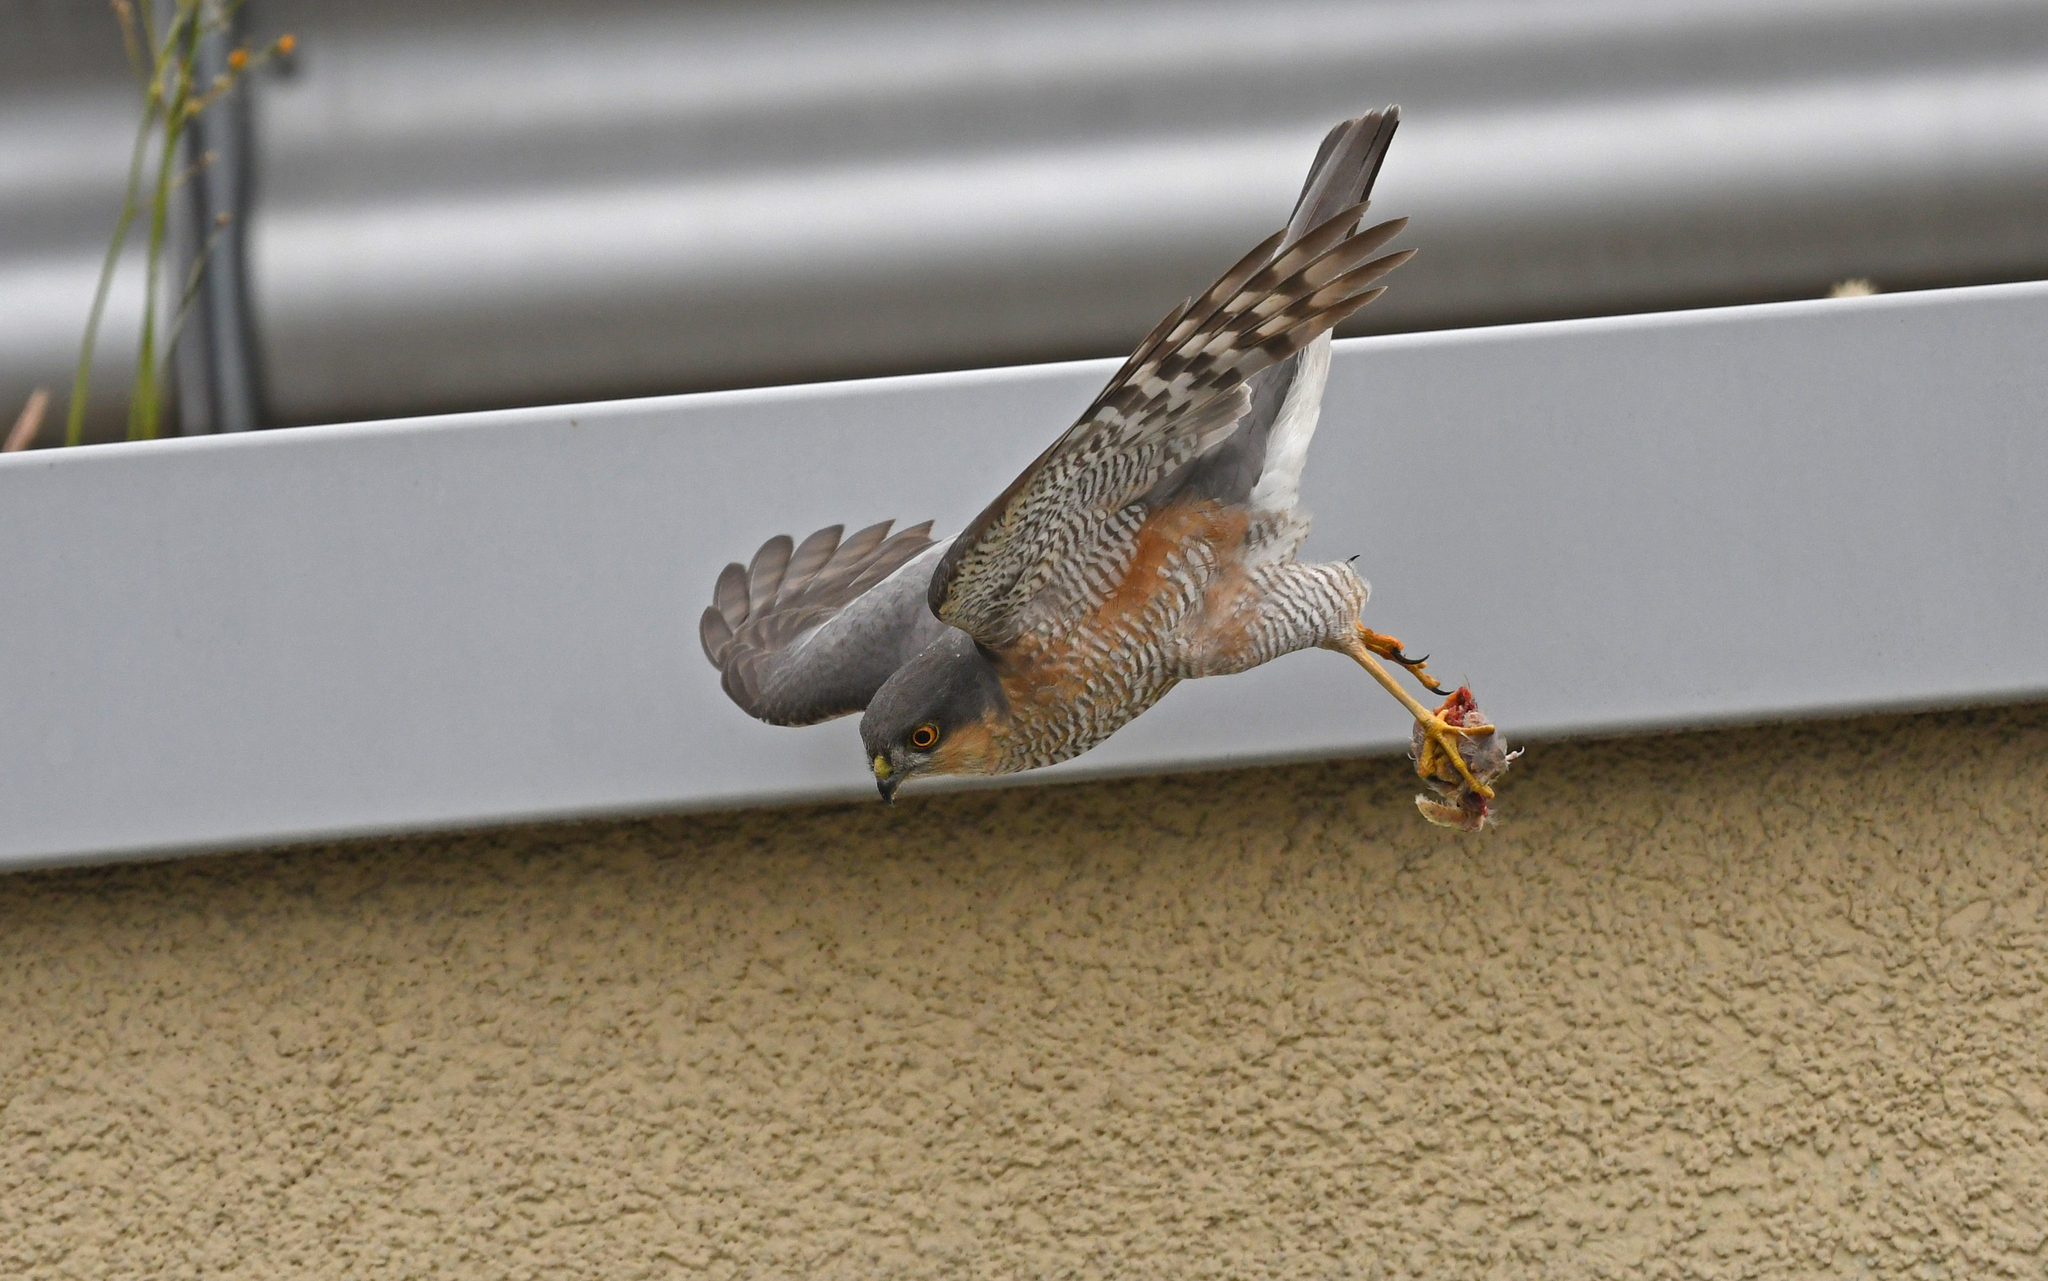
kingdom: Animalia
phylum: Chordata
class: Aves
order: Accipitriformes
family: Accipitridae
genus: Accipiter
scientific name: Accipiter nisus
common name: Eurasian sparrowhawk
